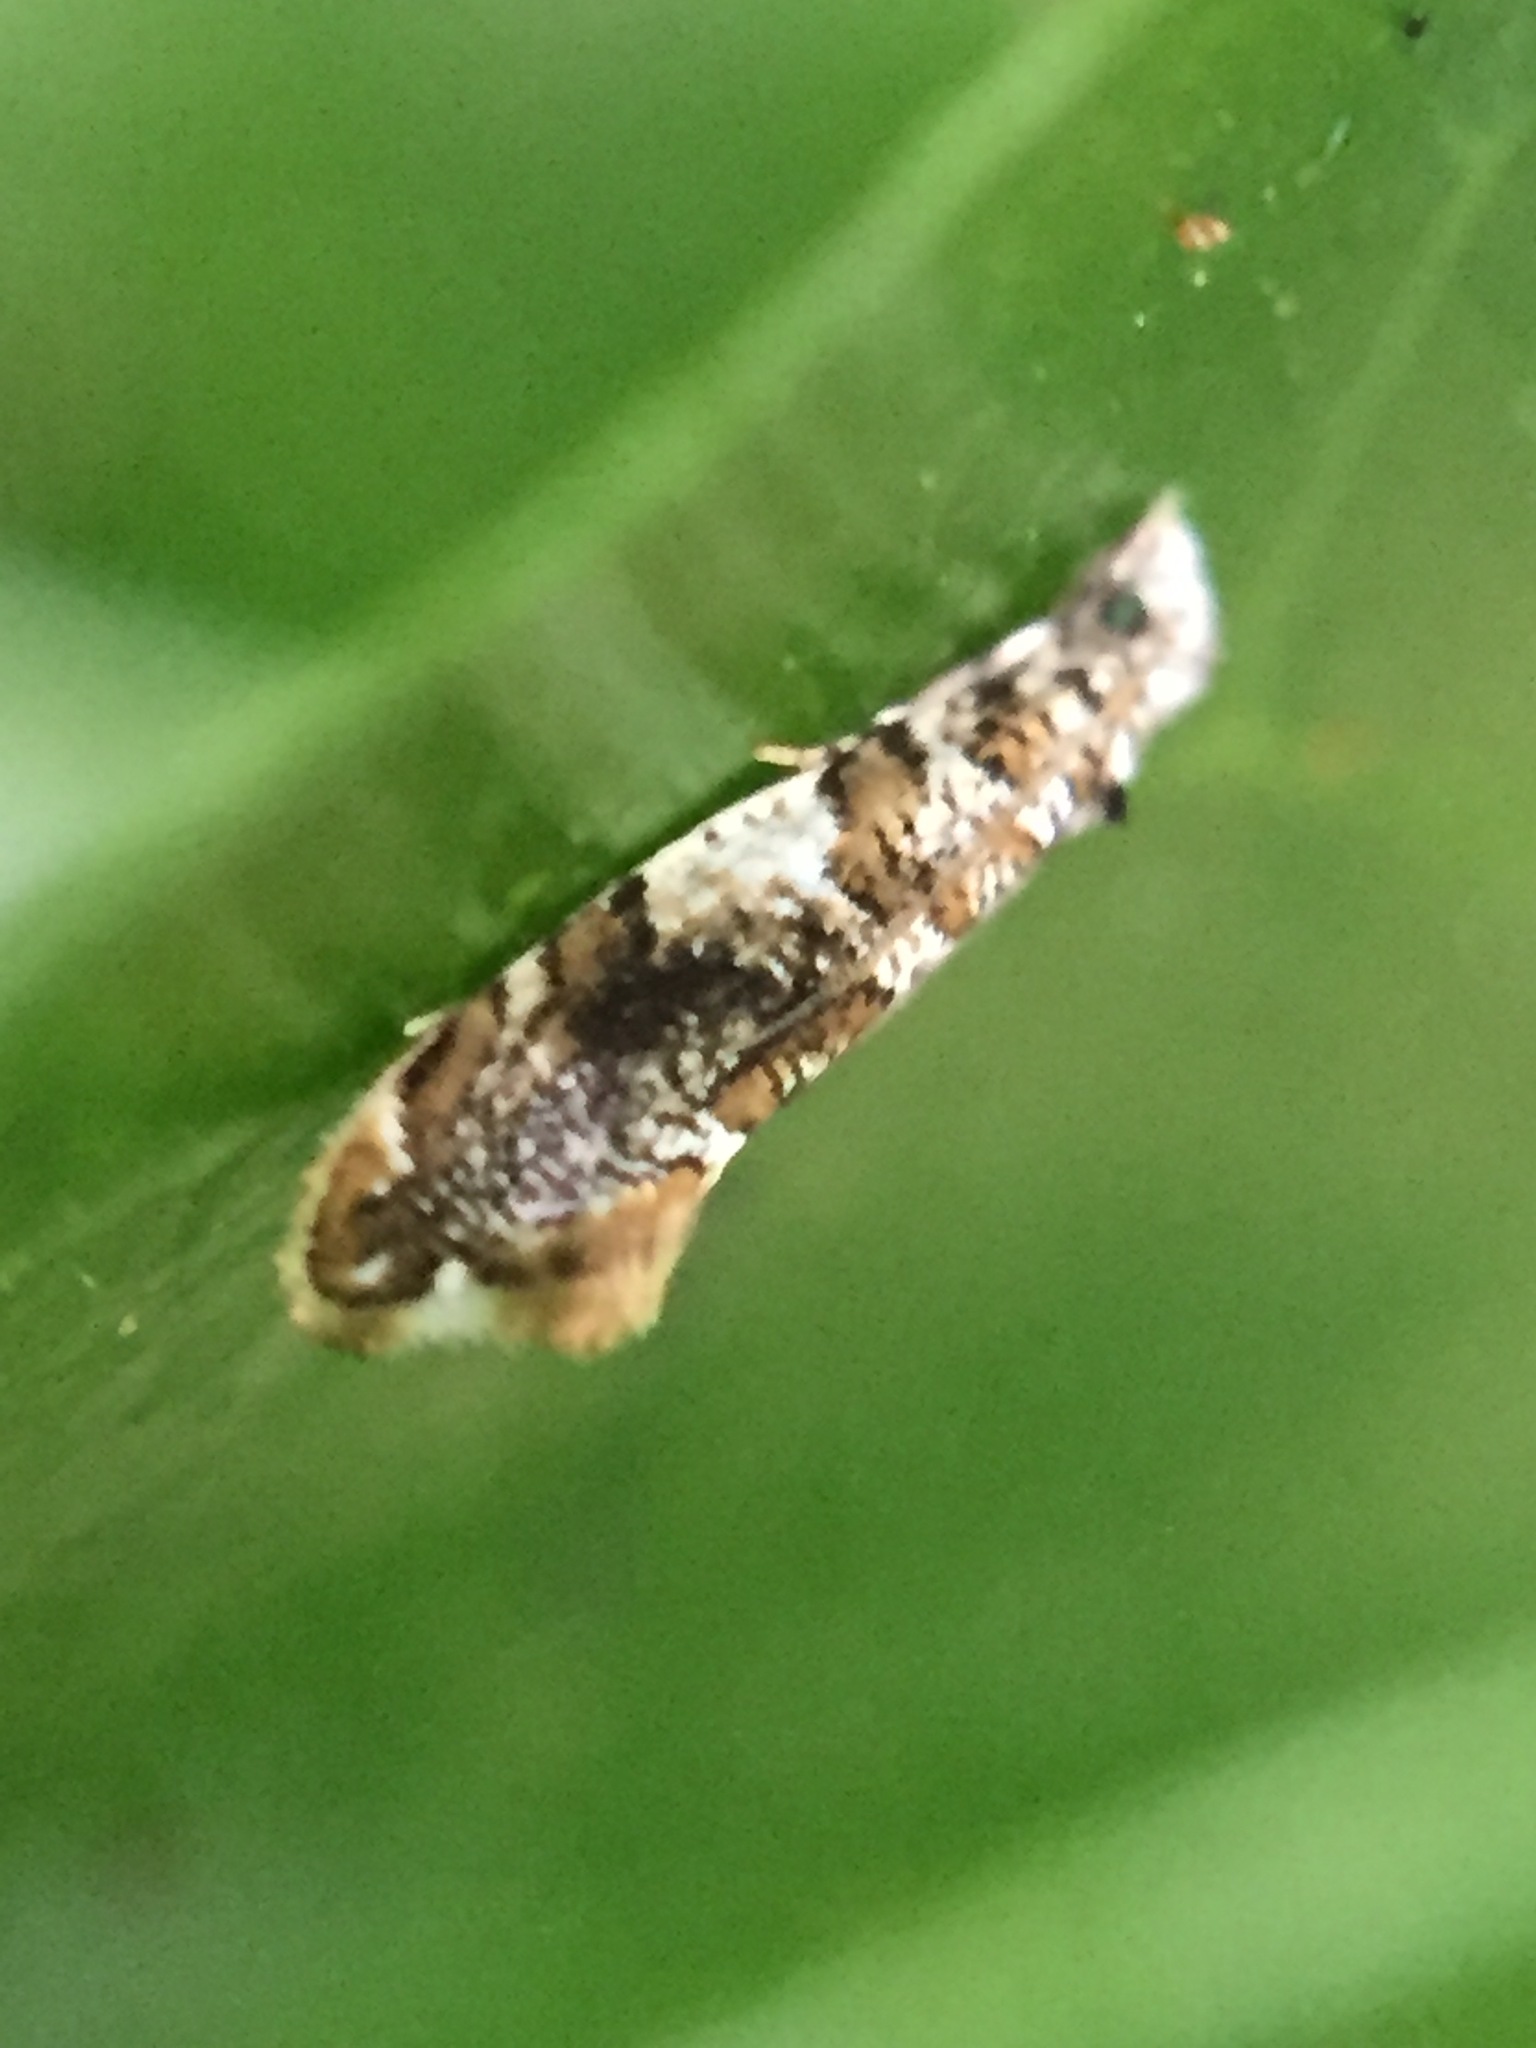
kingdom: Animalia
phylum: Arthropoda
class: Insecta
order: Lepidoptera
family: Tineidae
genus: Eschatotypa
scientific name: Eschatotypa derogatella
